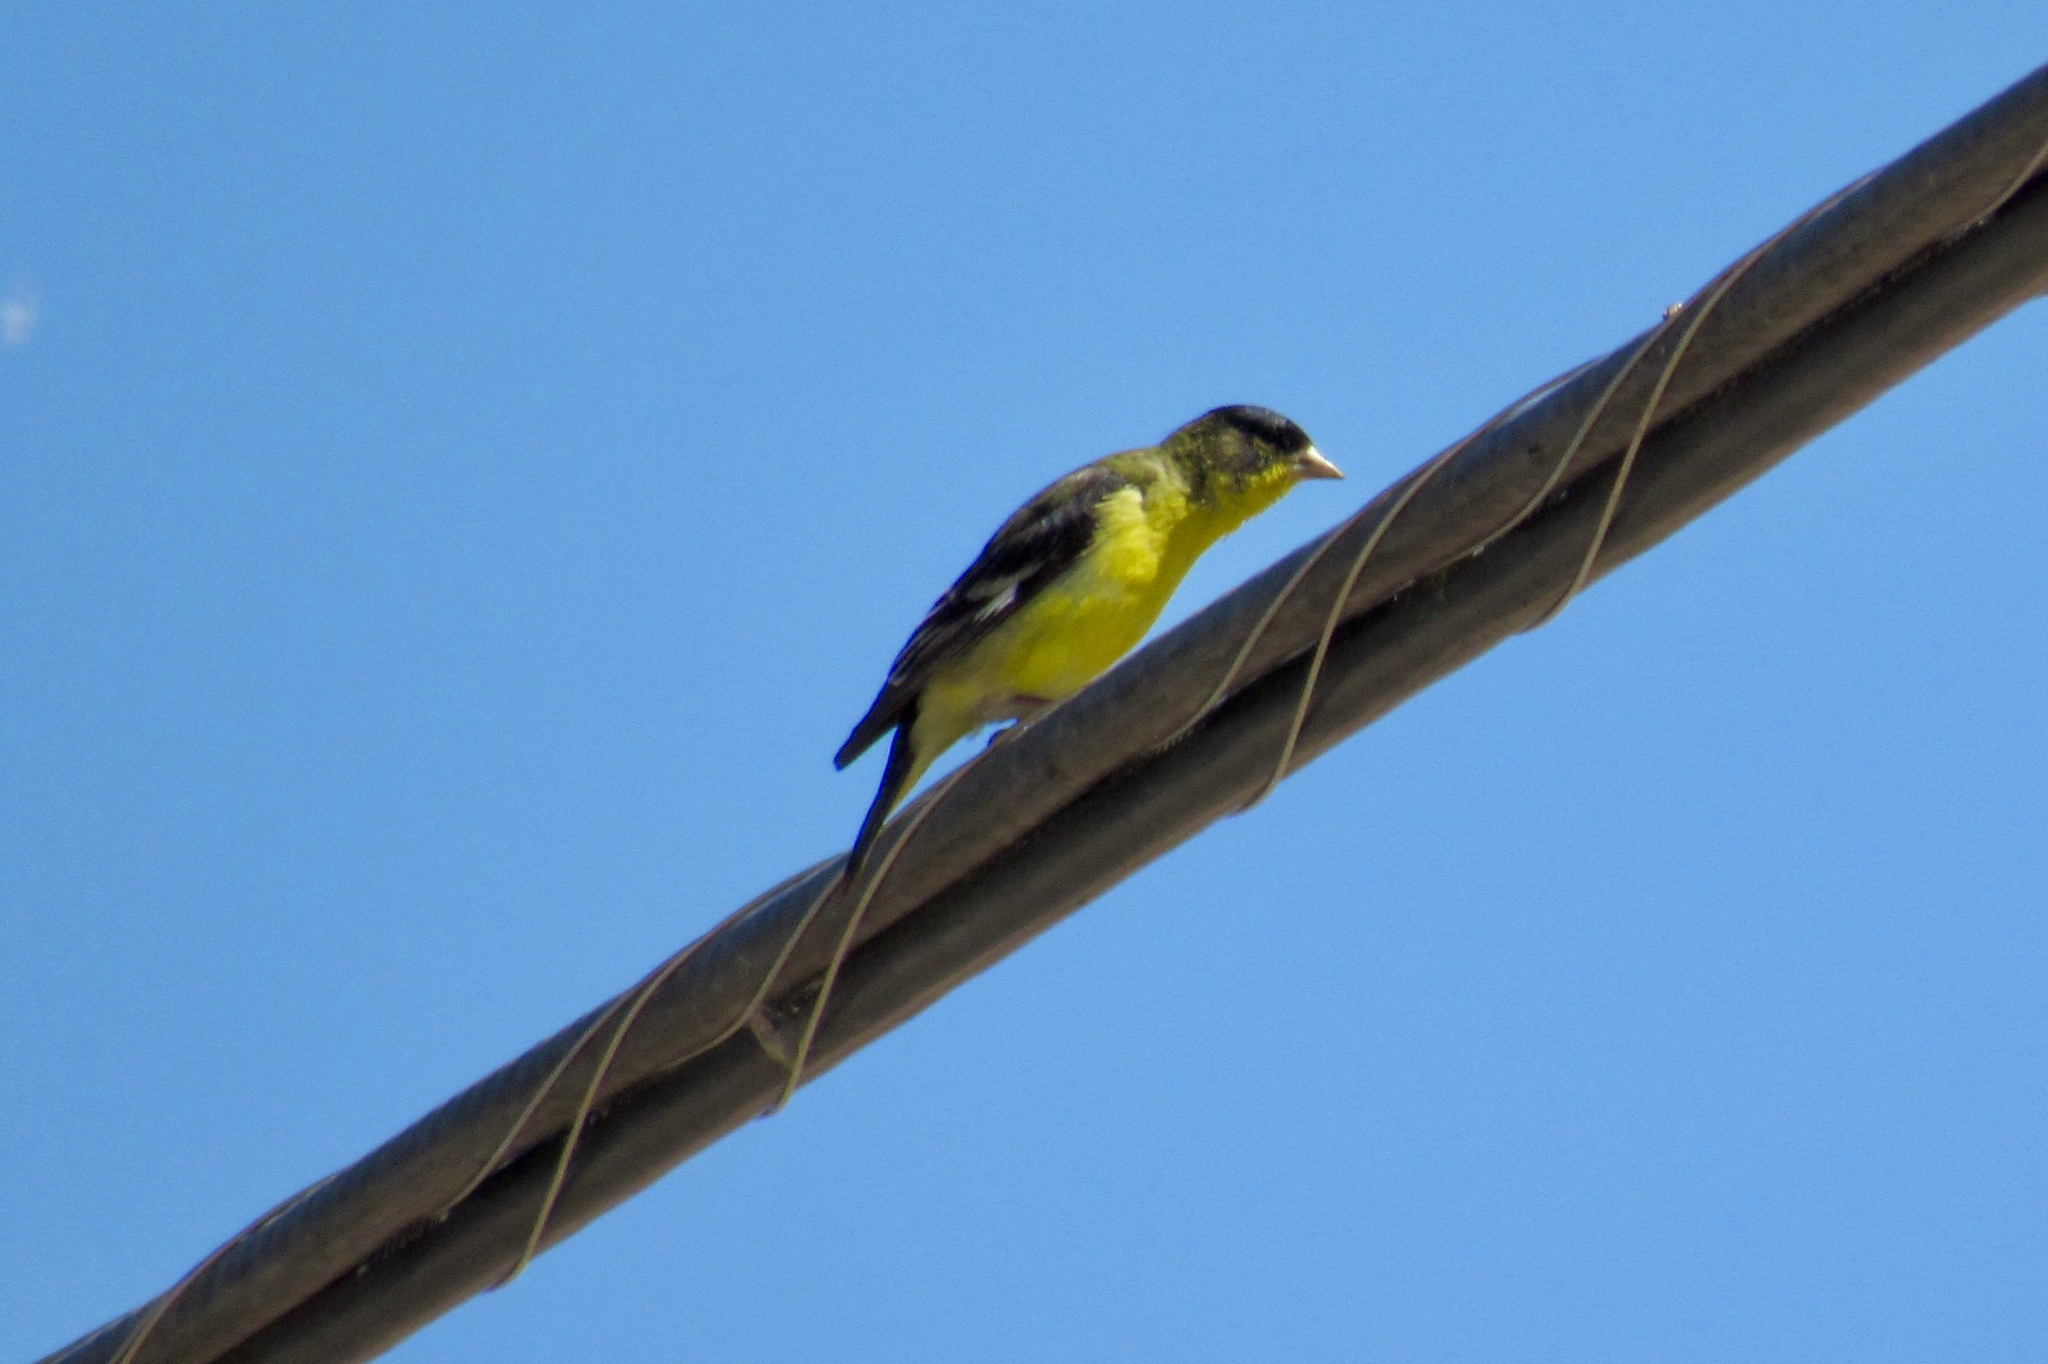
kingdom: Animalia
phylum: Chordata
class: Aves
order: Passeriformes
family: Fringillidae
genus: Spinus
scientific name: Spinus psaltria
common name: Lesser goldfinch
